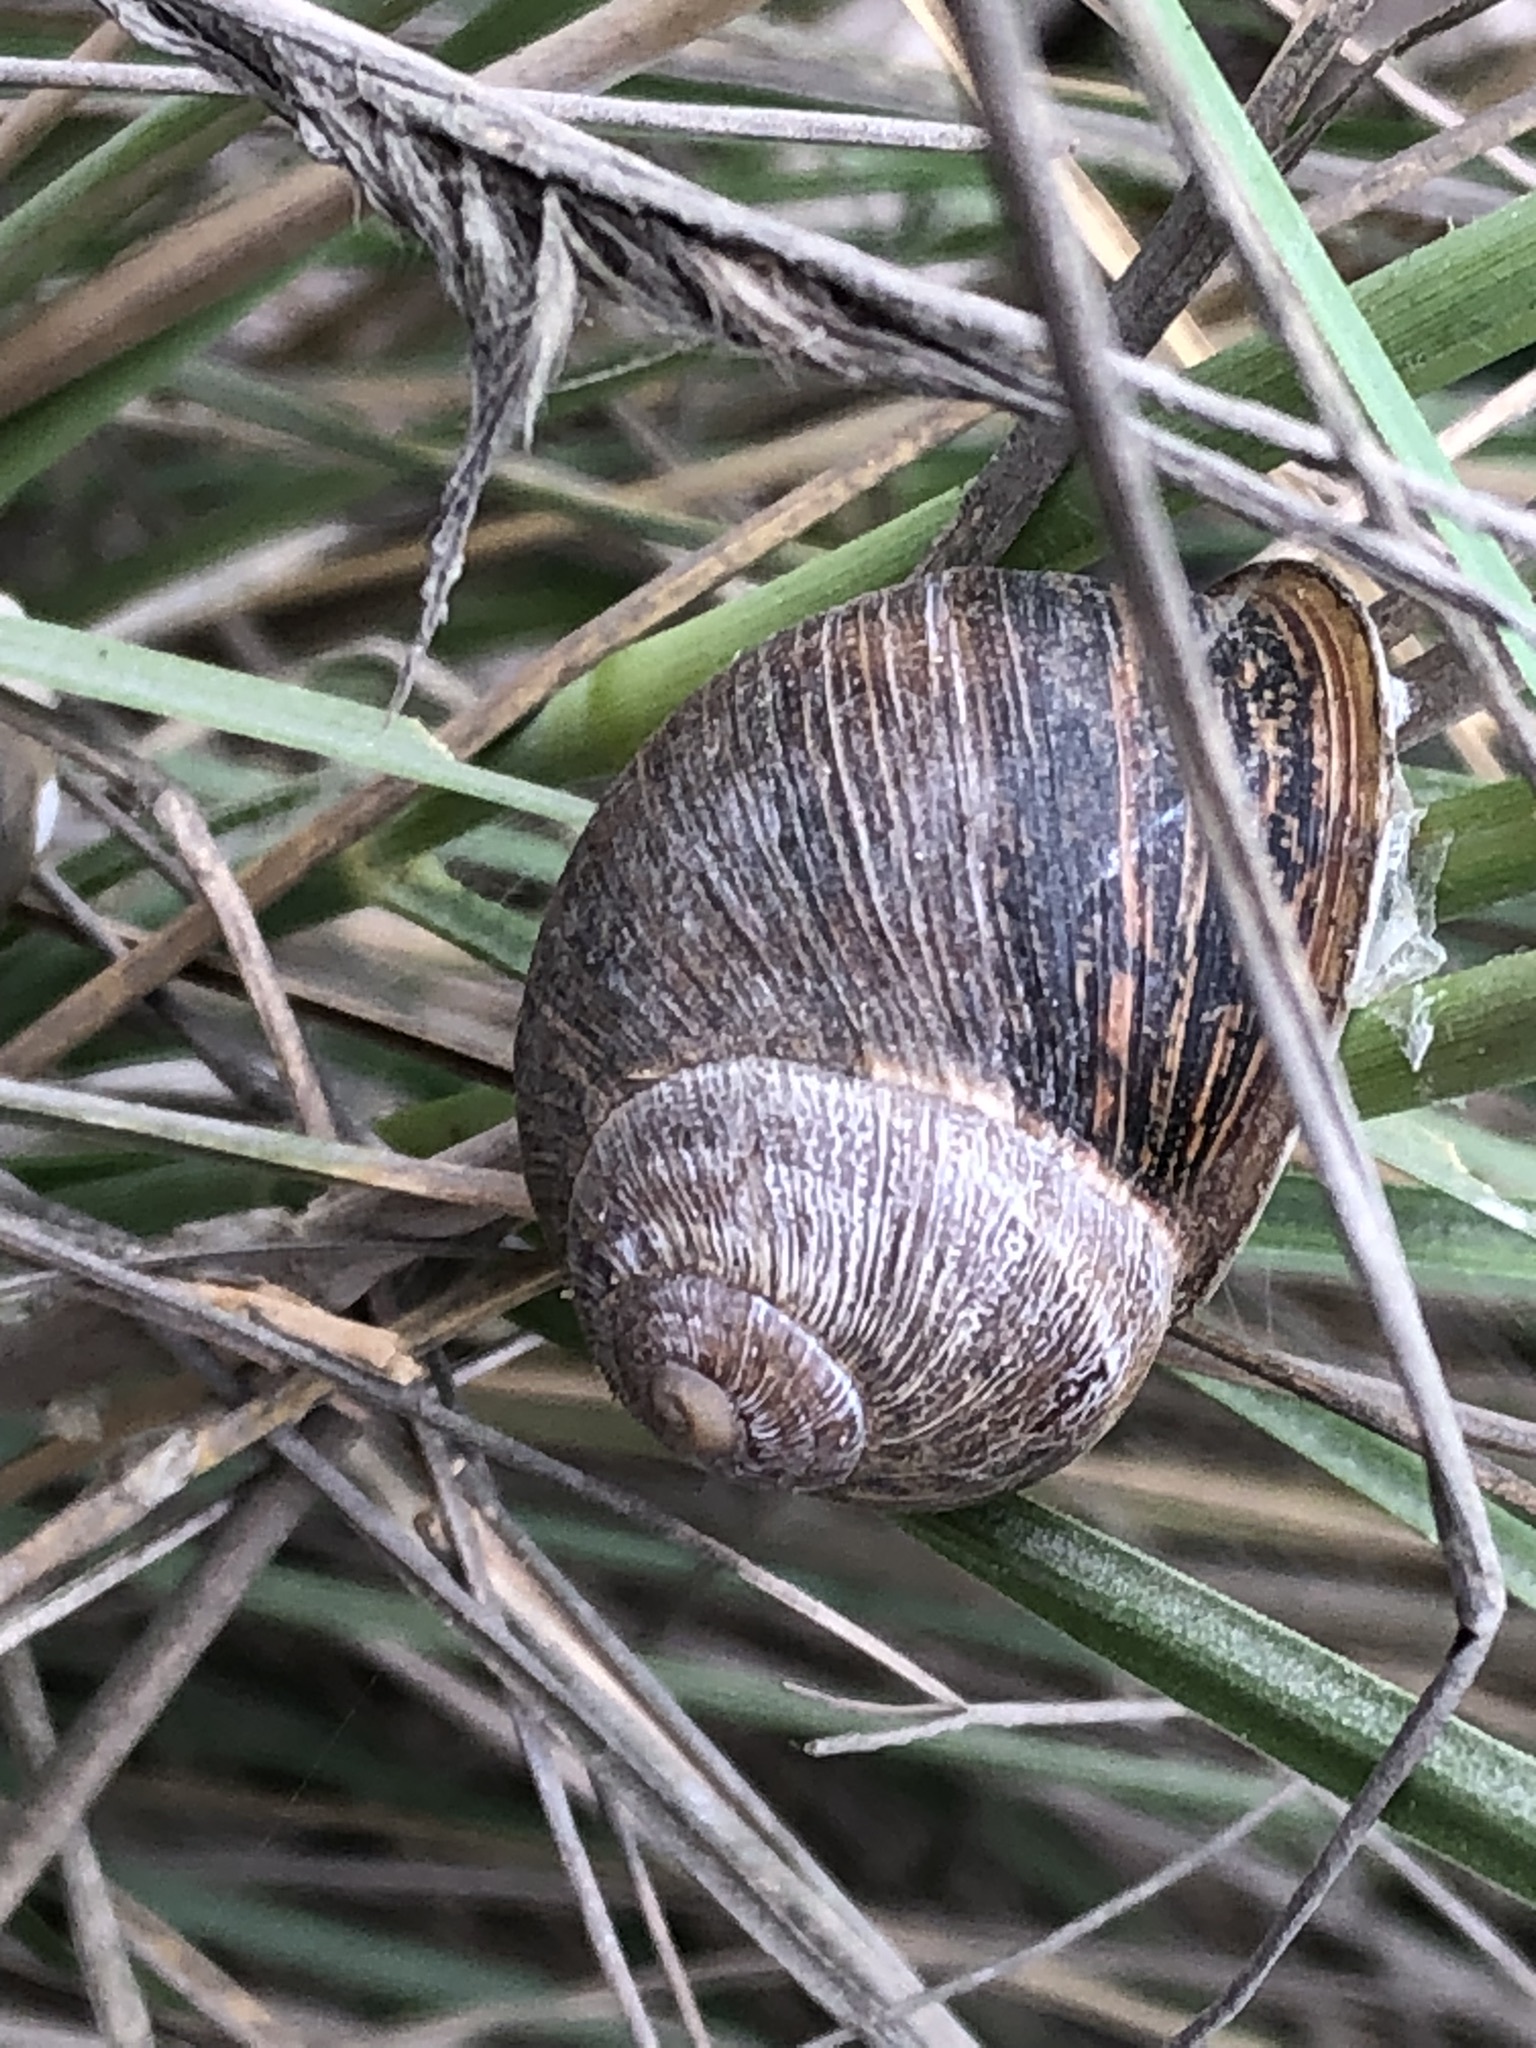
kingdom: Animalia
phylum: Mollusca
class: Gastropoda
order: Stylommatophora
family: Helicidae
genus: Cornu
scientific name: Cornu aspersum
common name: Brown garden snail
